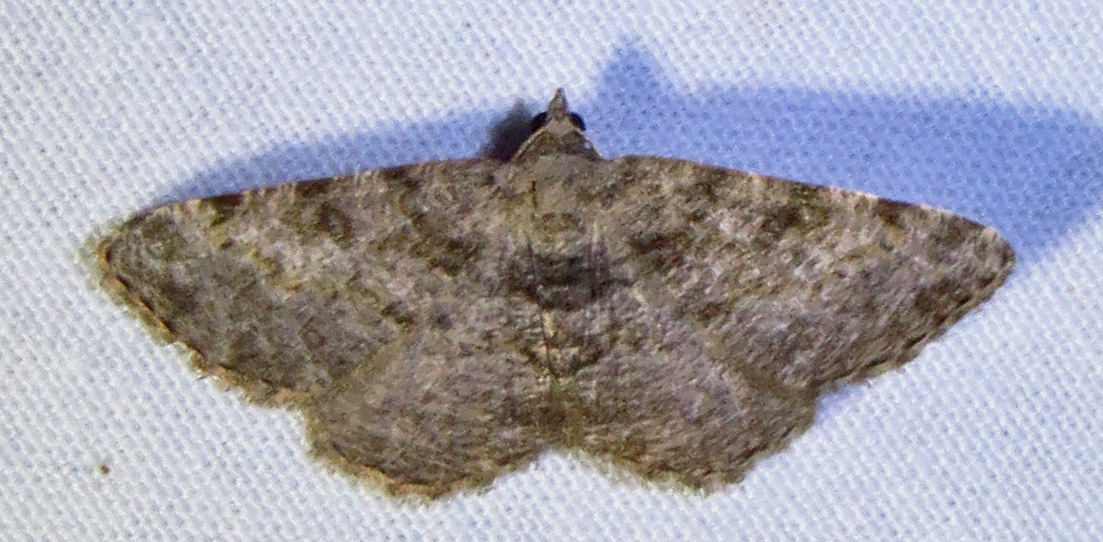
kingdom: Animalia
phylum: Arthropoda
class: Insecta
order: Lepidoptera
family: Geometridae
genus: Digrammia
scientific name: Digrammia gnophosaria
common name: Hollow-spotted angle
